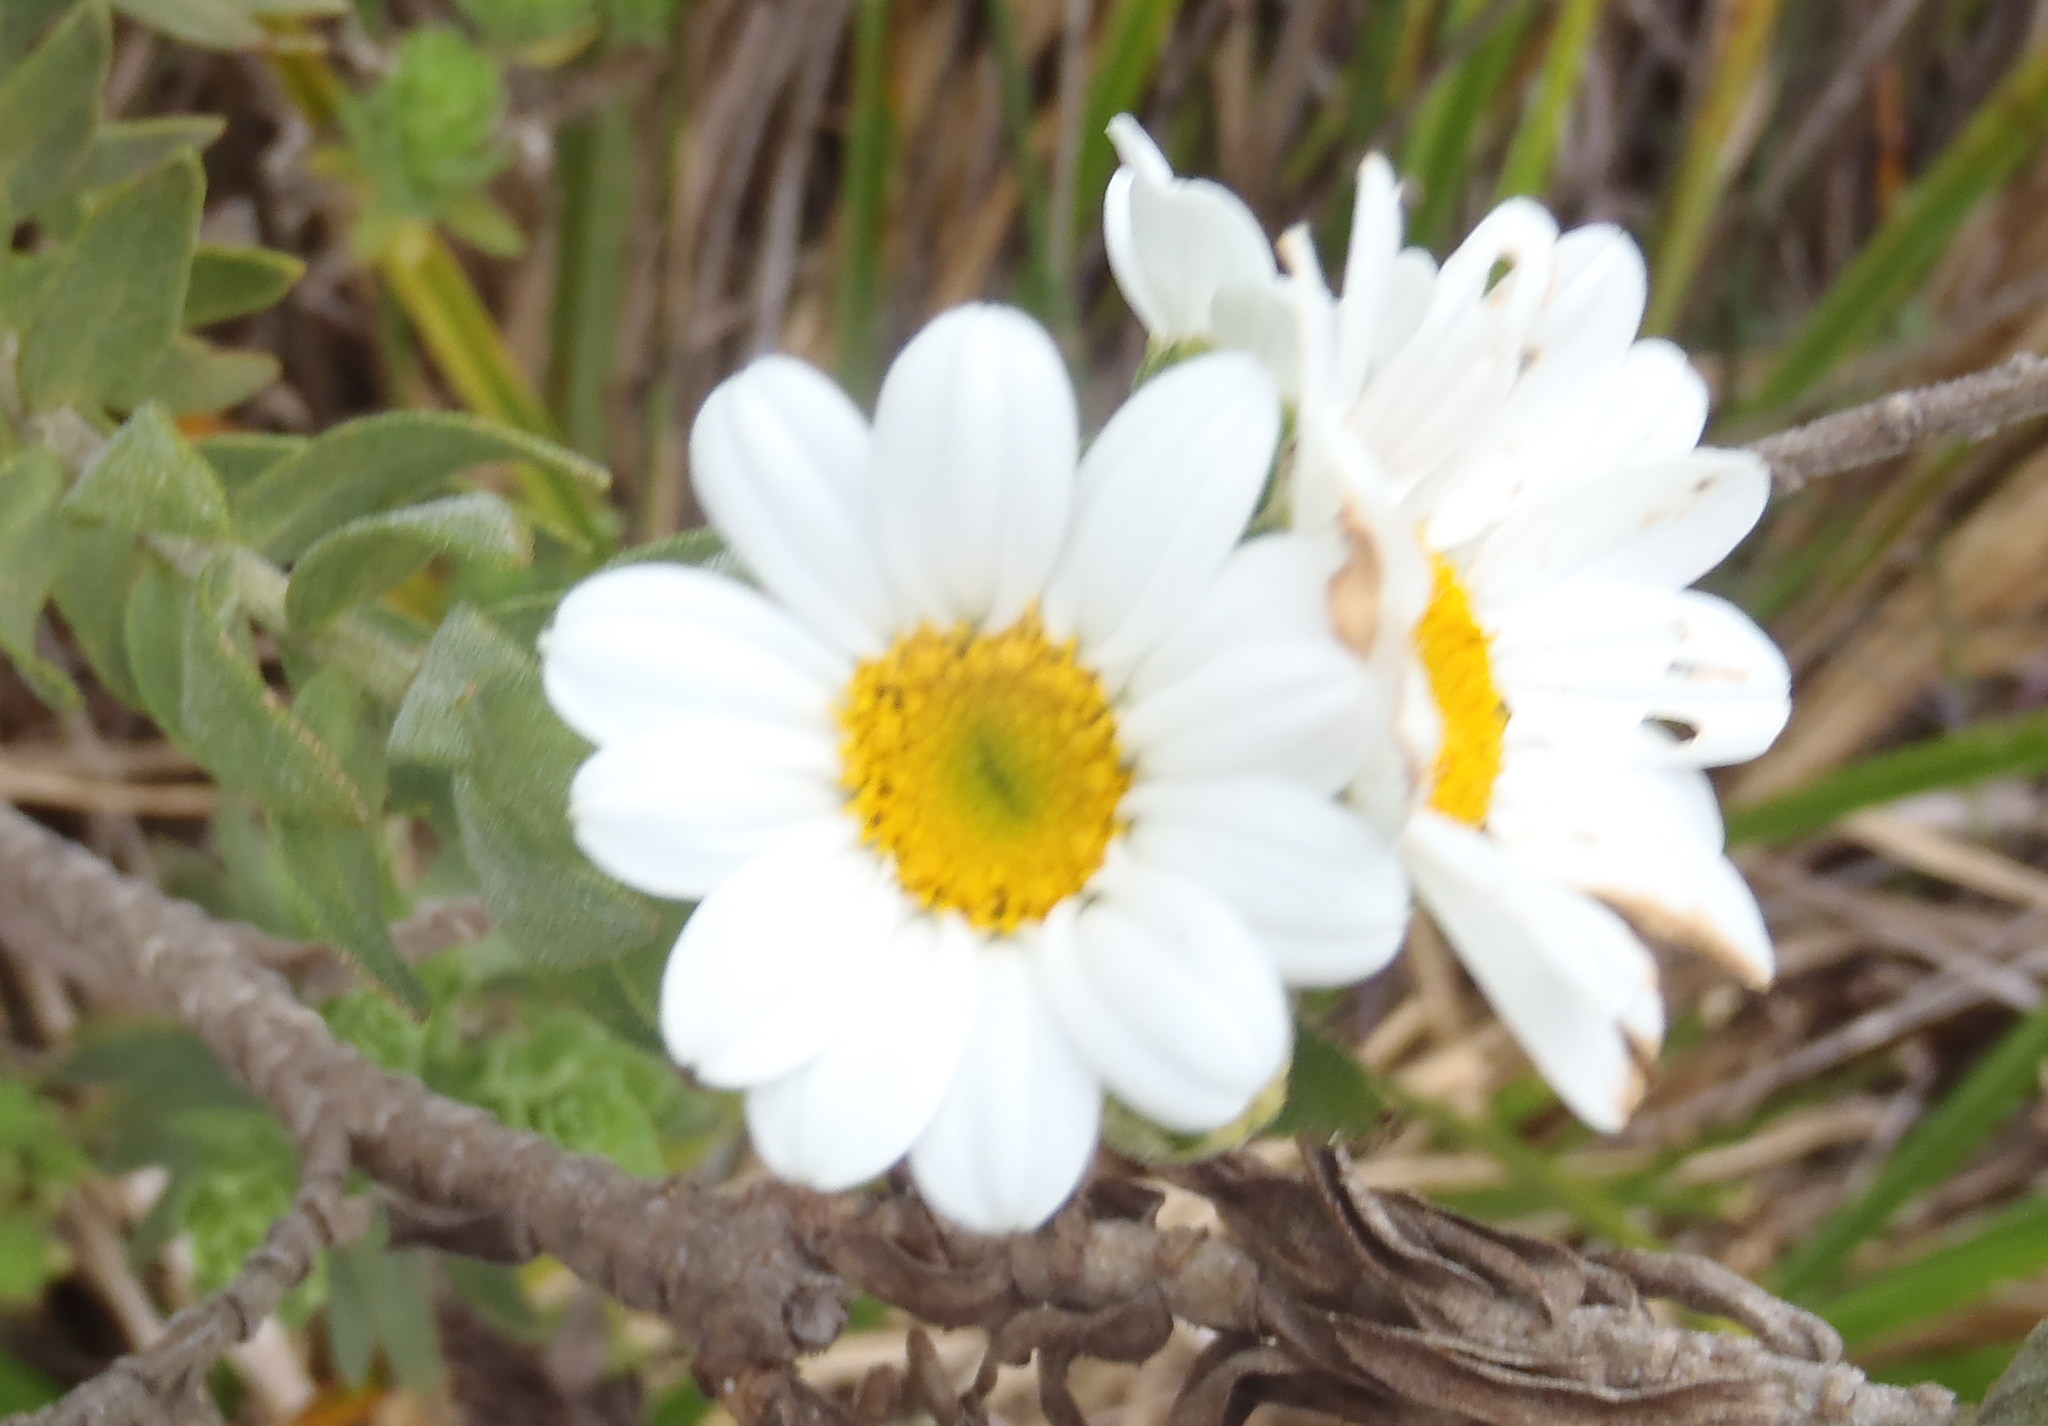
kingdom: Plantae
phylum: Tracheophyta
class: Magnoliopsida
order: Asterales
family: Asteraceae
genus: Osmitopsis
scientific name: Osmitopsis asteriscoides
